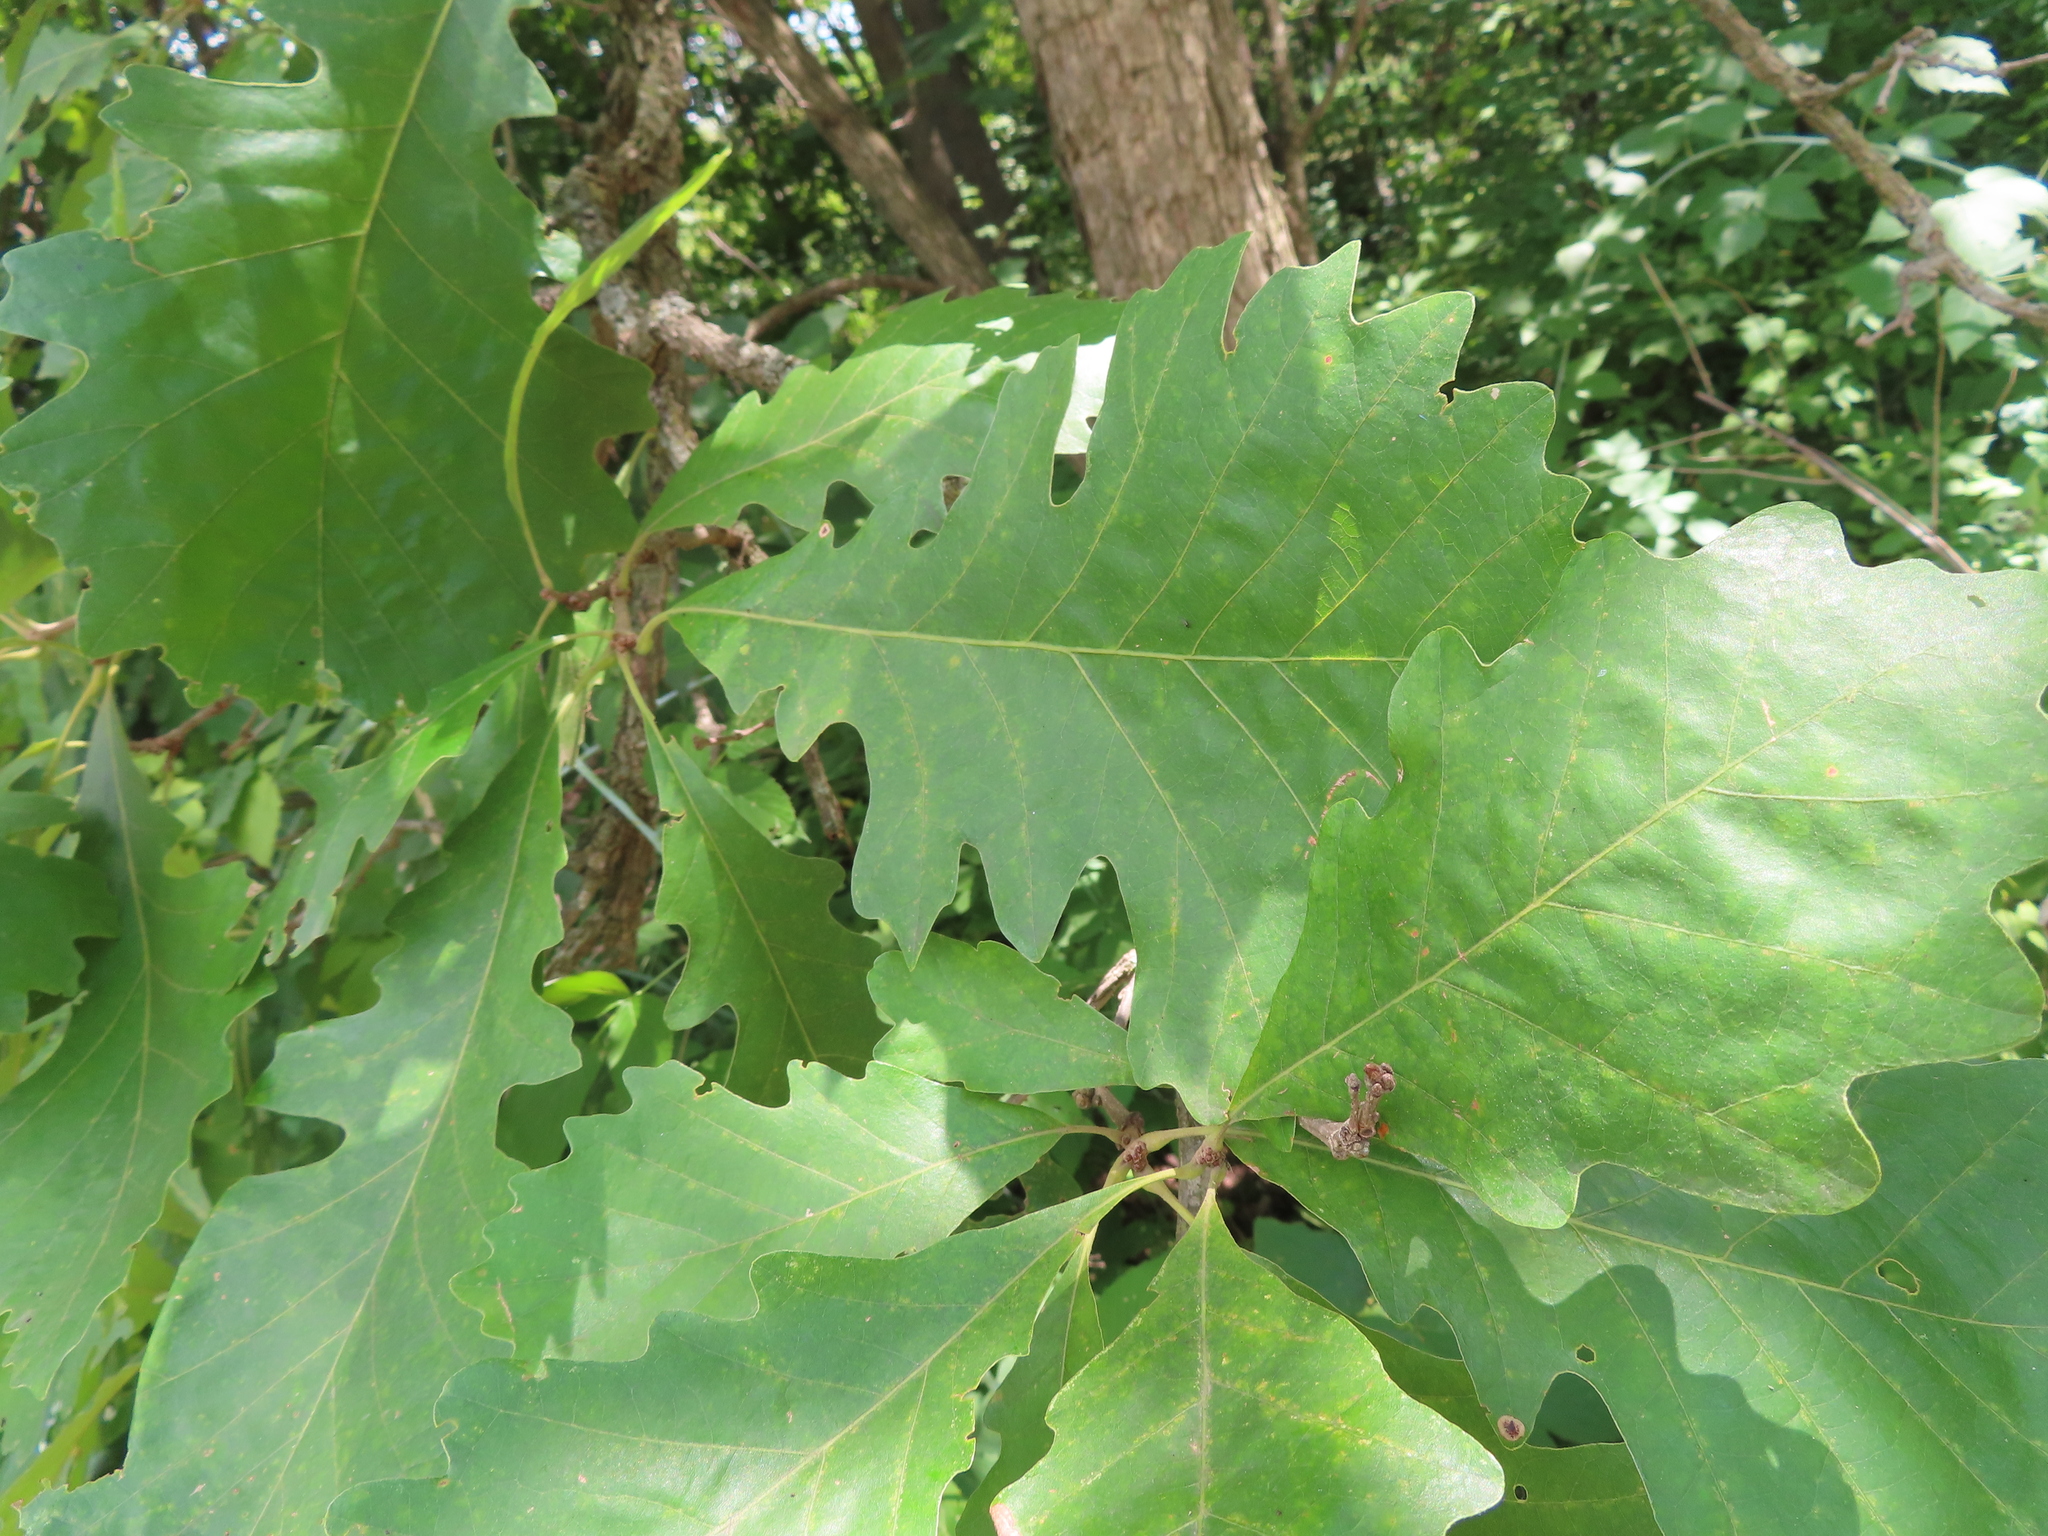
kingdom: Plantae
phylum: Tracheophyta
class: Magnoliopsida
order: Fagales
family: Fagaceae
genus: Quercus
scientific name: Quercus macrocarpa
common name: Bur oak
